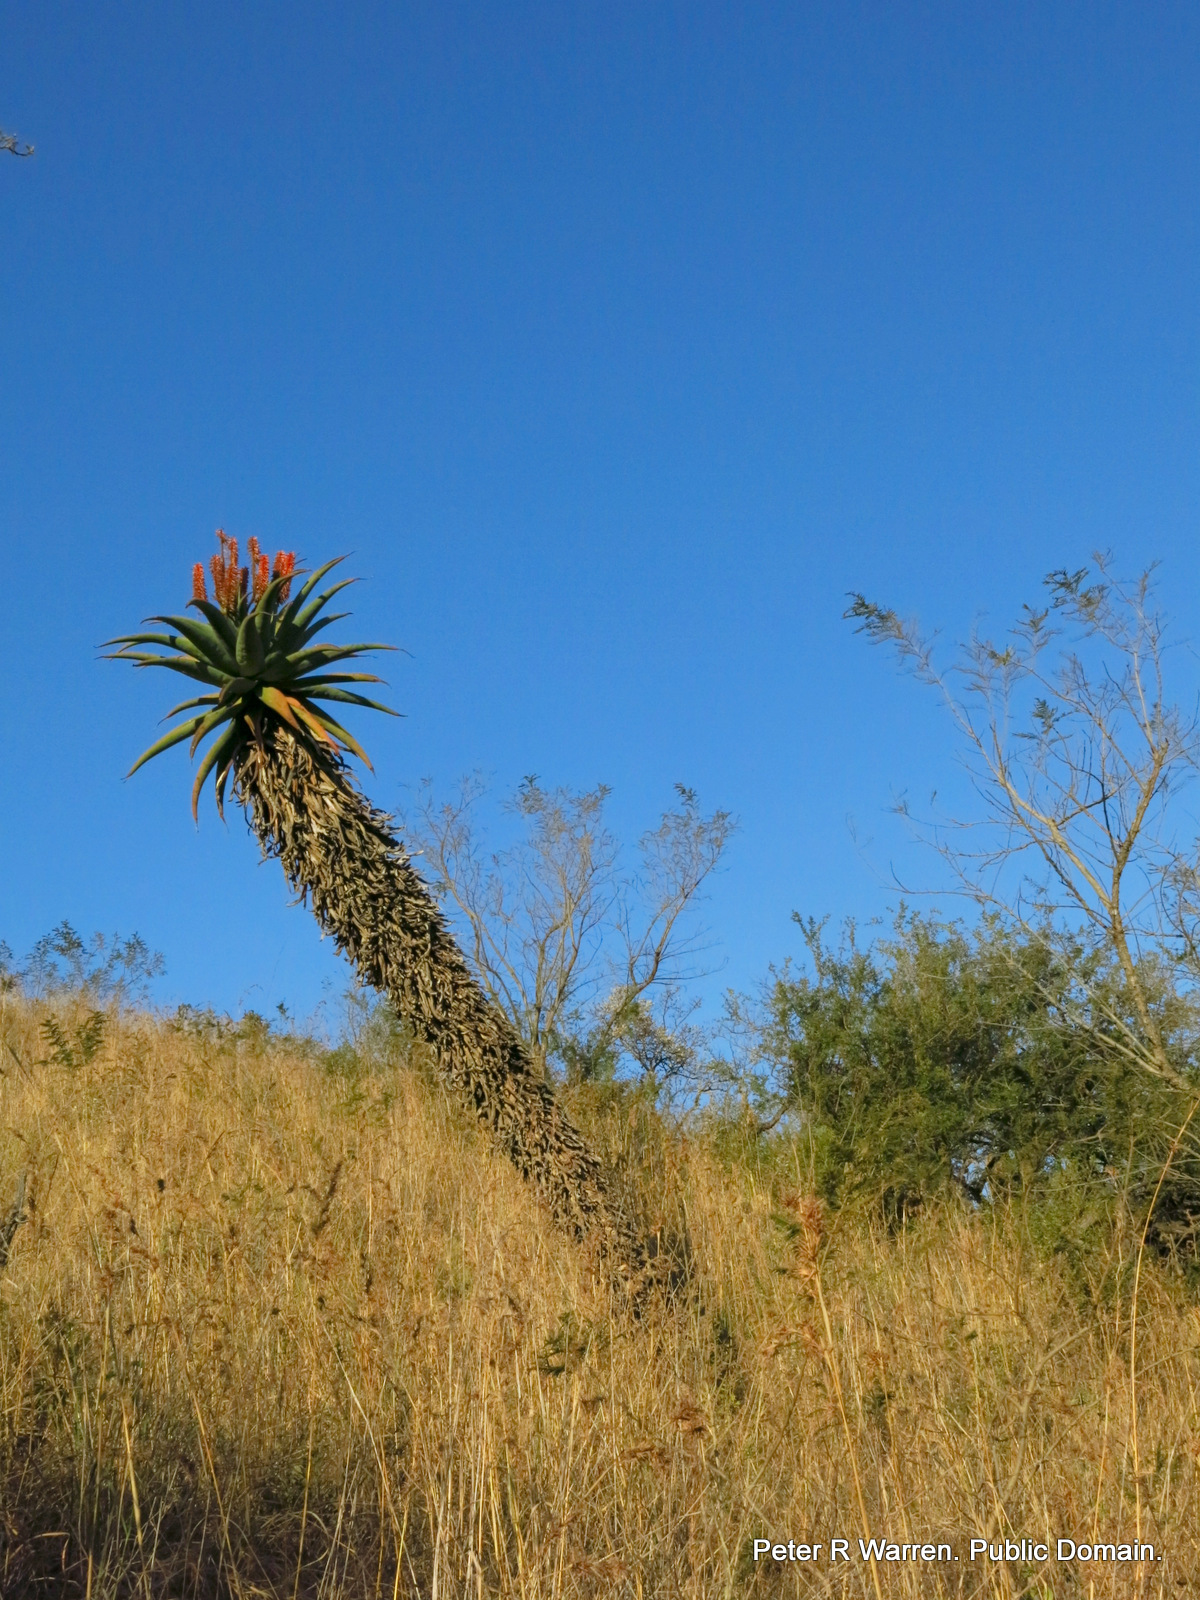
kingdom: Plantae
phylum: Tracheophyta
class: Liliopsida
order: Asparagales
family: Asphodelaceae
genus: Aloe
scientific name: Aloe ferox
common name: Bitter aloe
